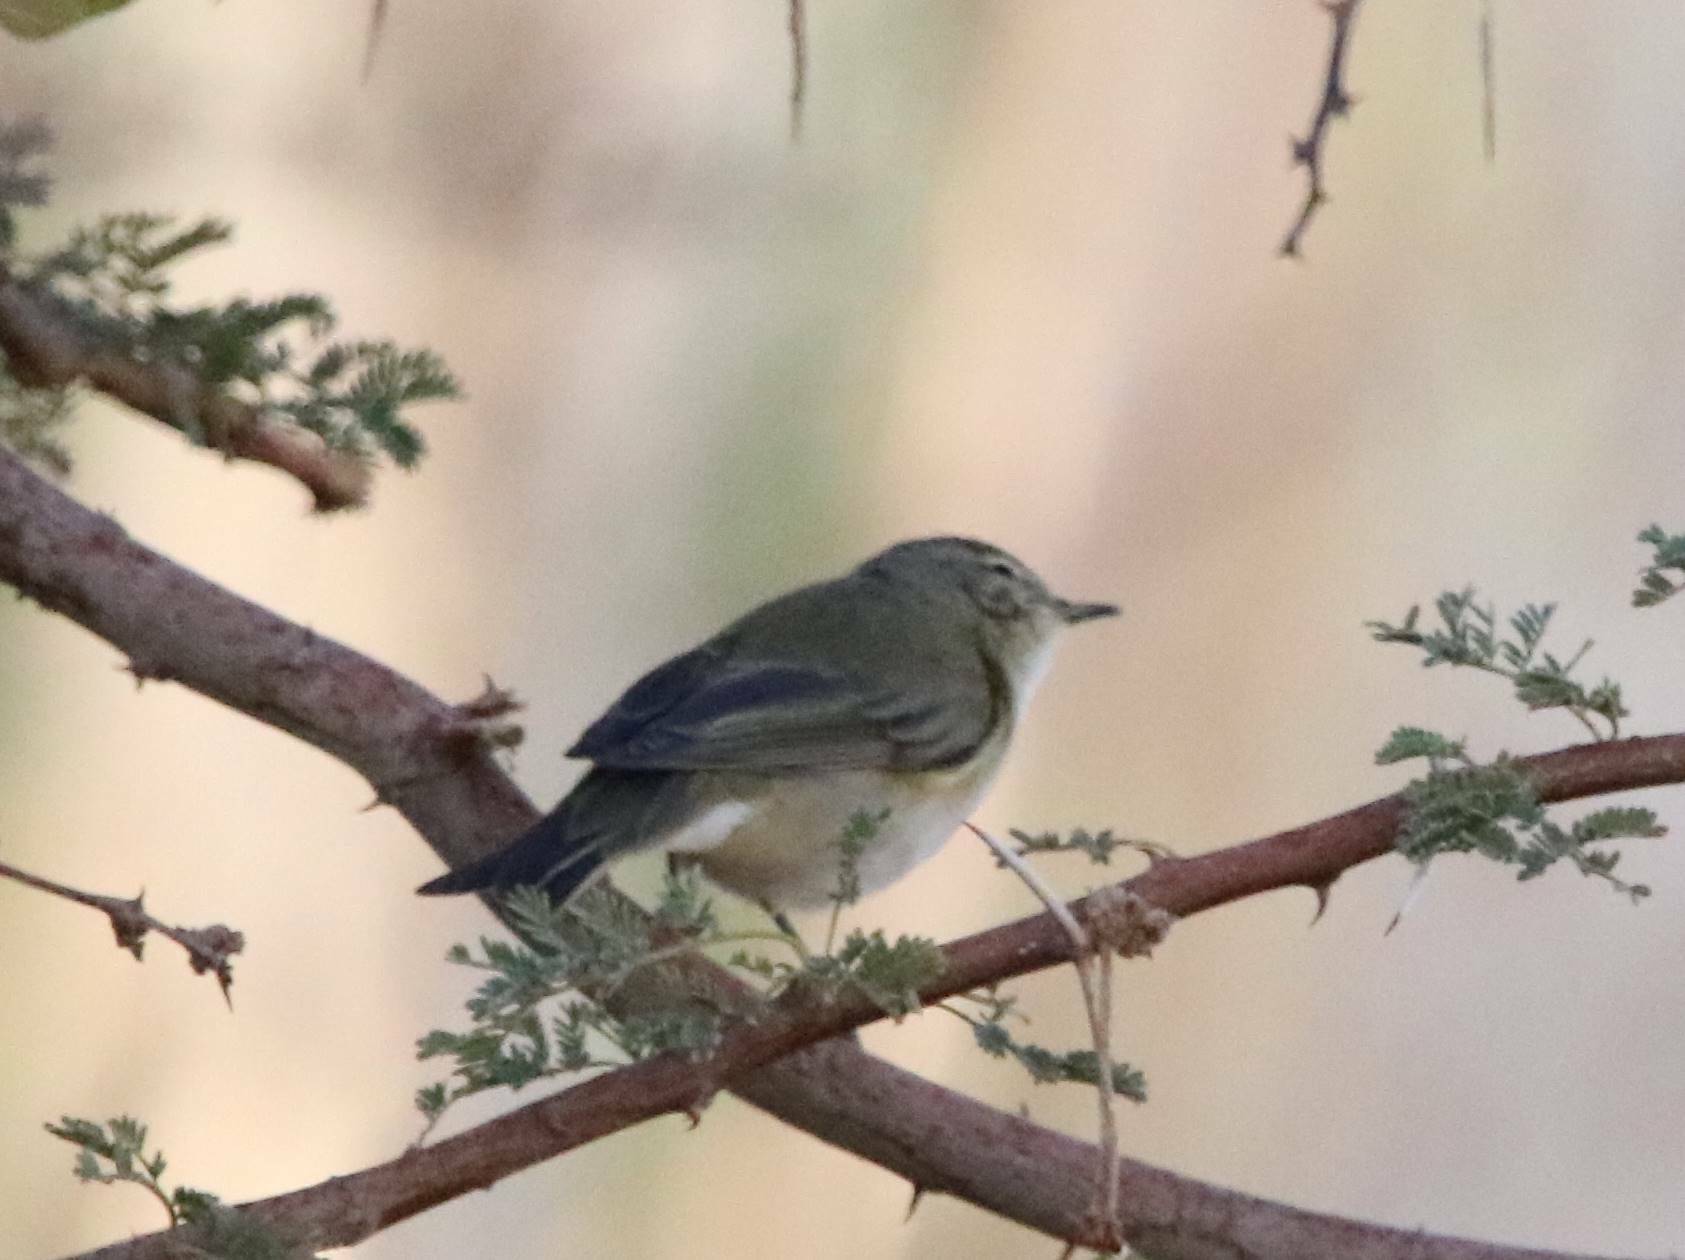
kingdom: Animalia
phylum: Chordata
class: Aves
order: Passeriformes
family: Phylloscopidae
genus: Phylloscopus
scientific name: Phylloscopus collybita
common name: Common chiffchaff
